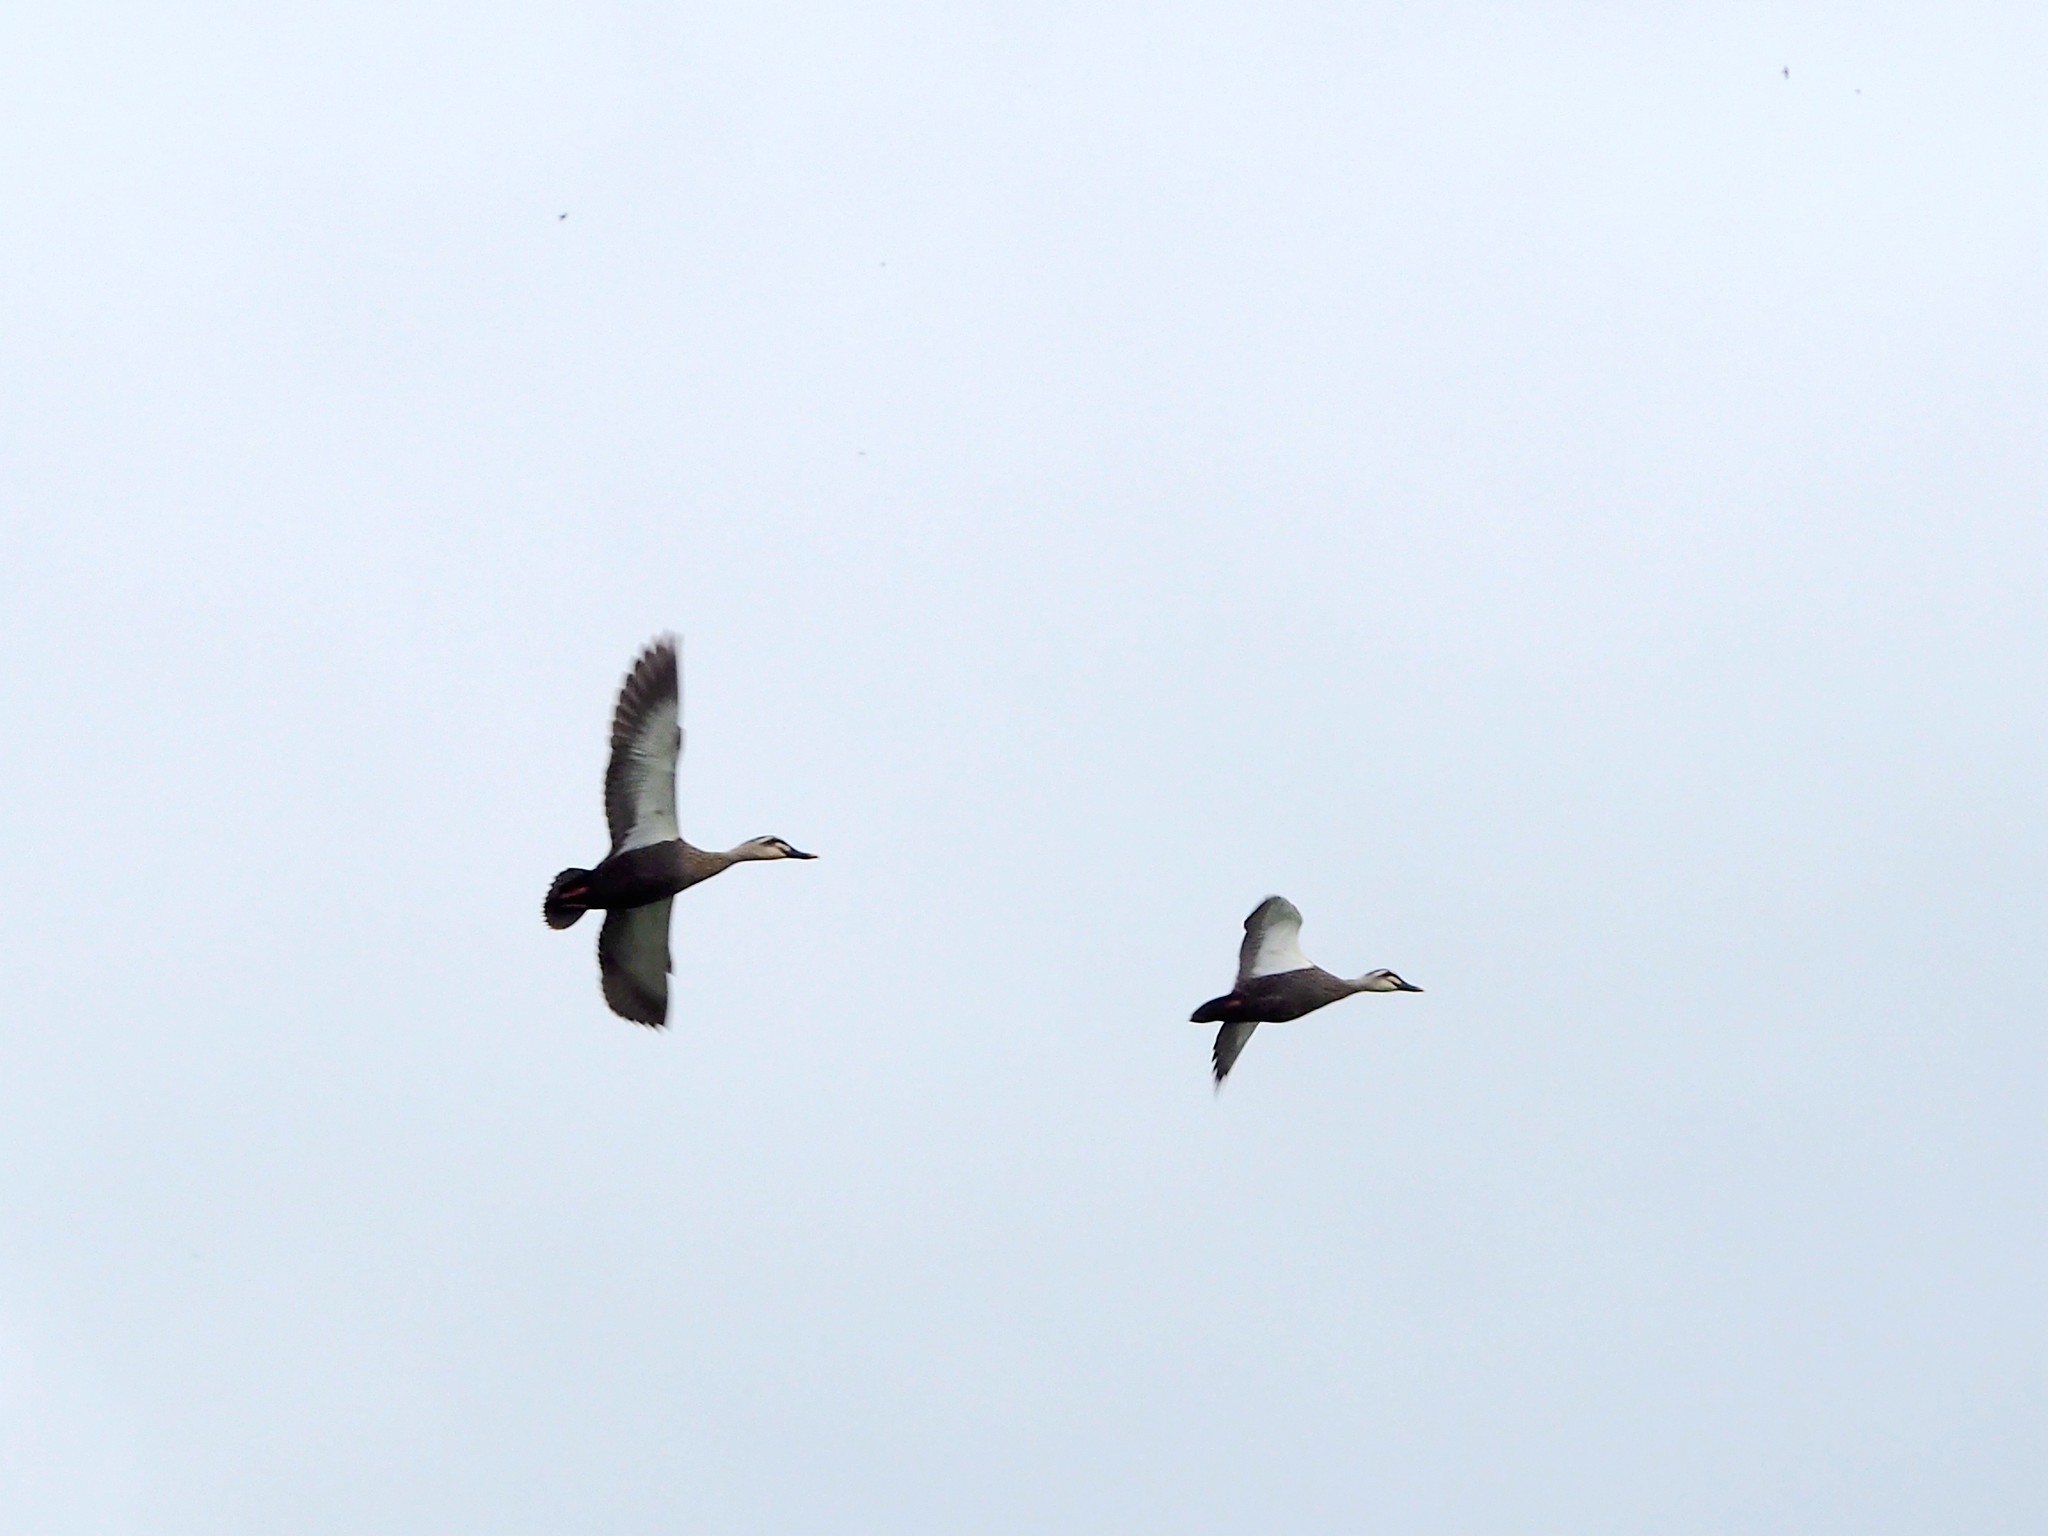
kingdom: Animalia
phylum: Chordata
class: Aves
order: Anseriformes
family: Anatidae
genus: Anas
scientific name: Anas zonorhyncha
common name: Eastern spot-billed duck
